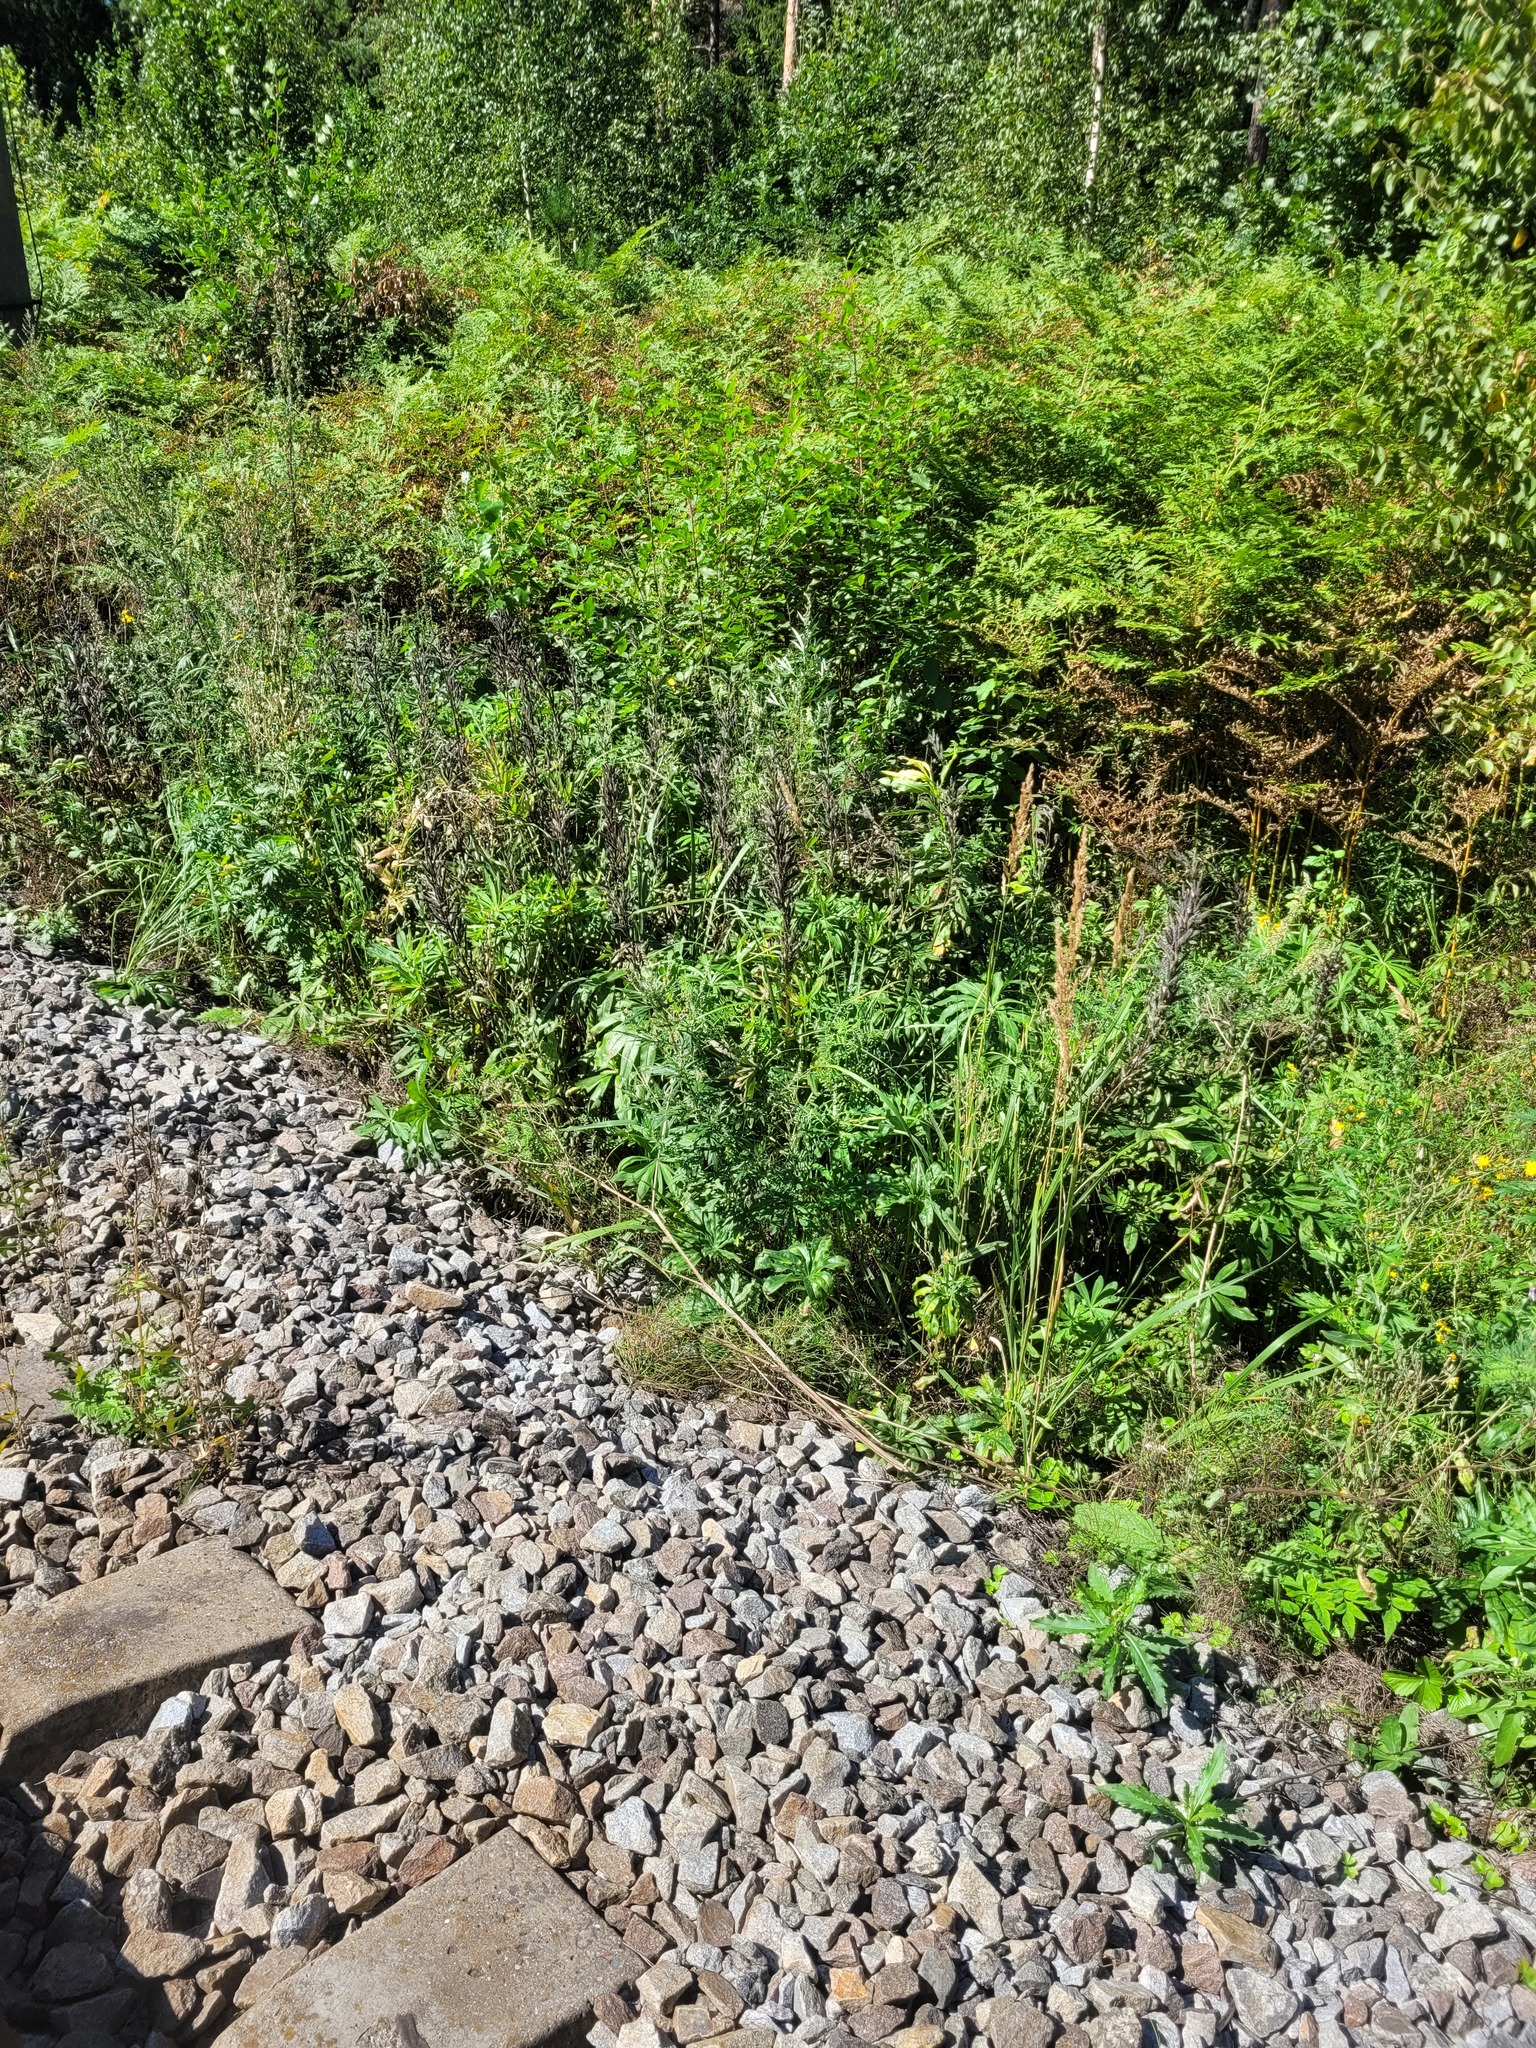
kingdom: Plantae
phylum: Tracheophyta
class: Magnoliopsida
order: Fabales
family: Fabaceae
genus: Lupinus
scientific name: Lupinus polyphyllus
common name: Garden lupin
